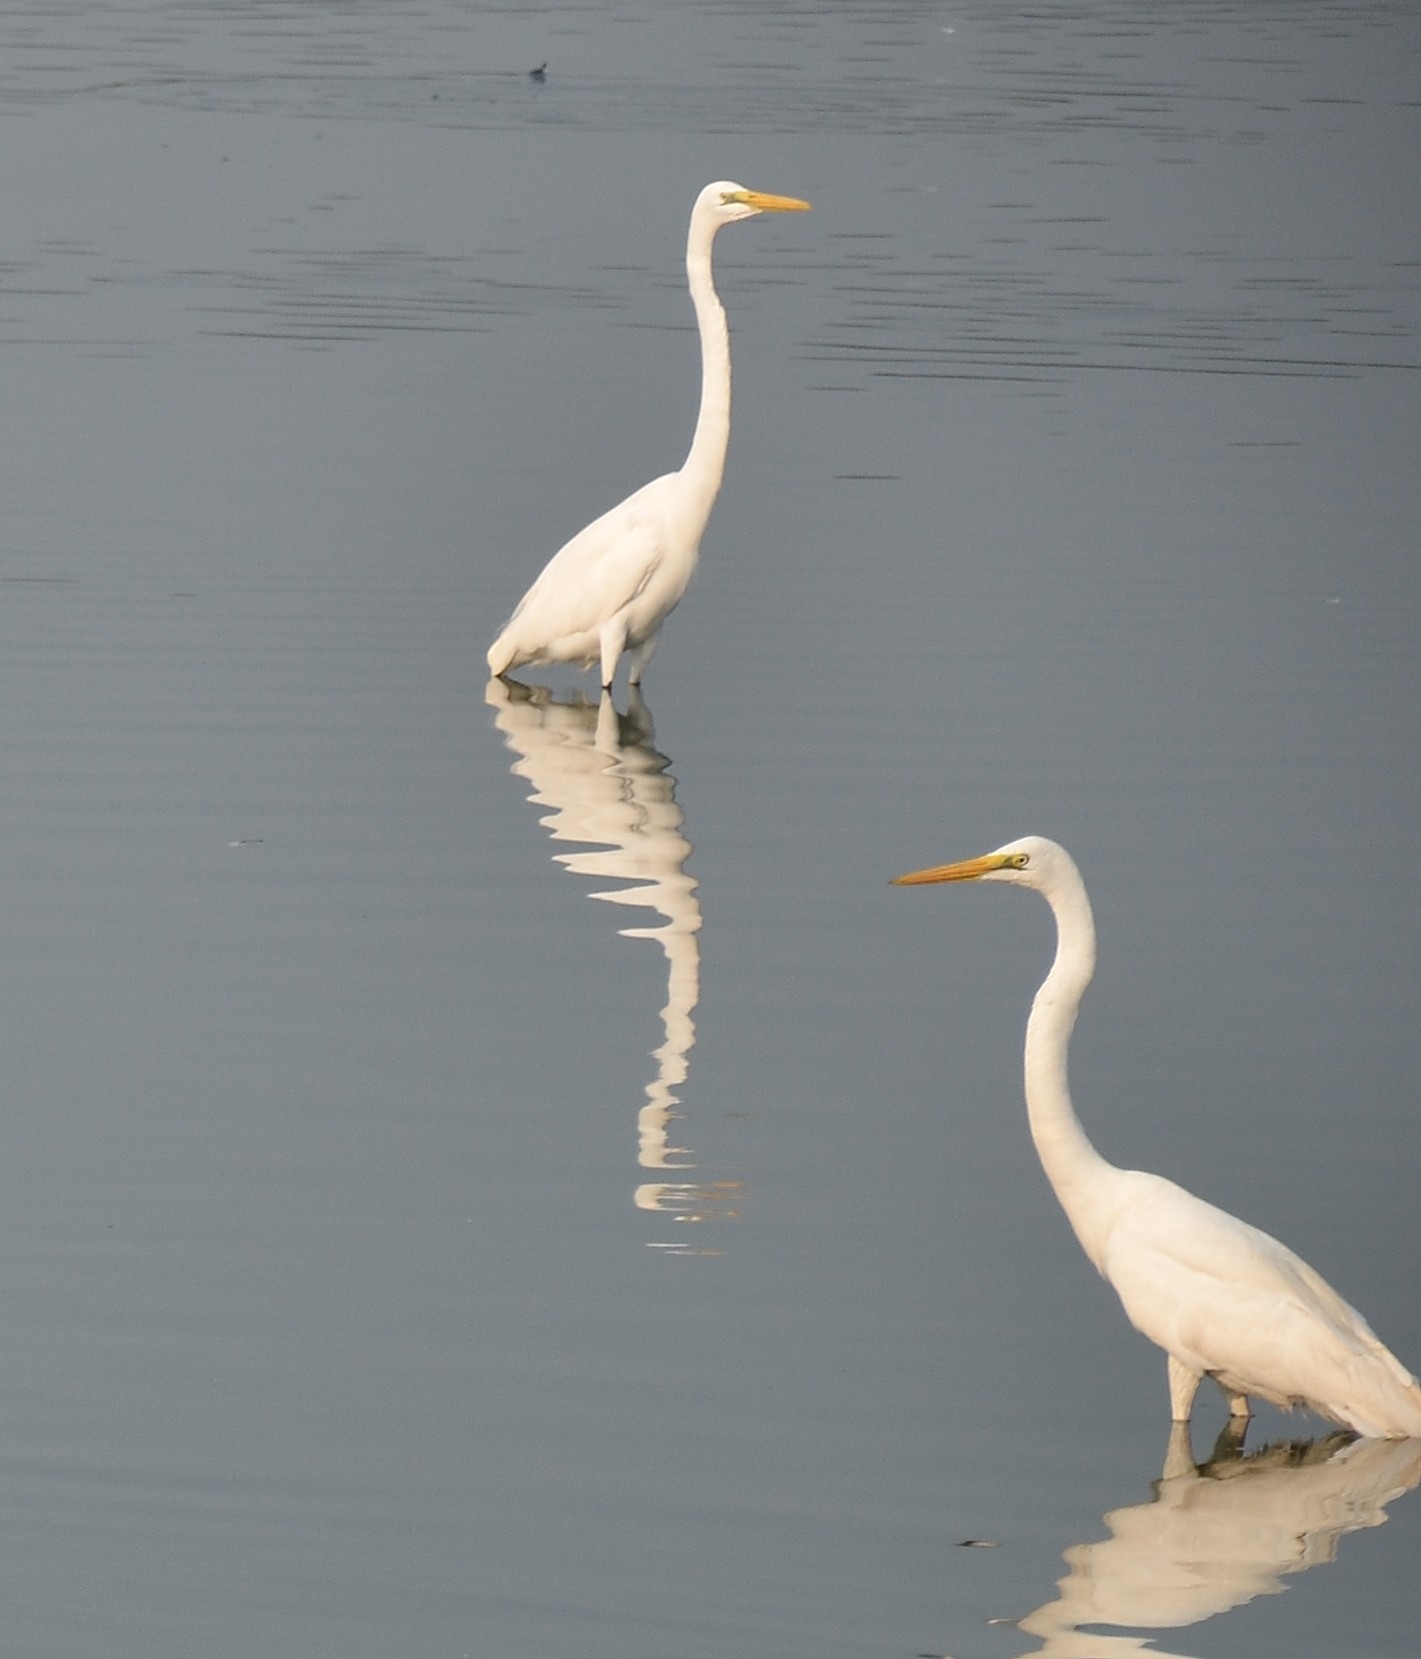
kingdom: Animalia
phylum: Chordata
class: Aves
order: Pelecaniformes
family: Ardeidae
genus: Ardea
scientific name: Ardea alba
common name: Great egret
